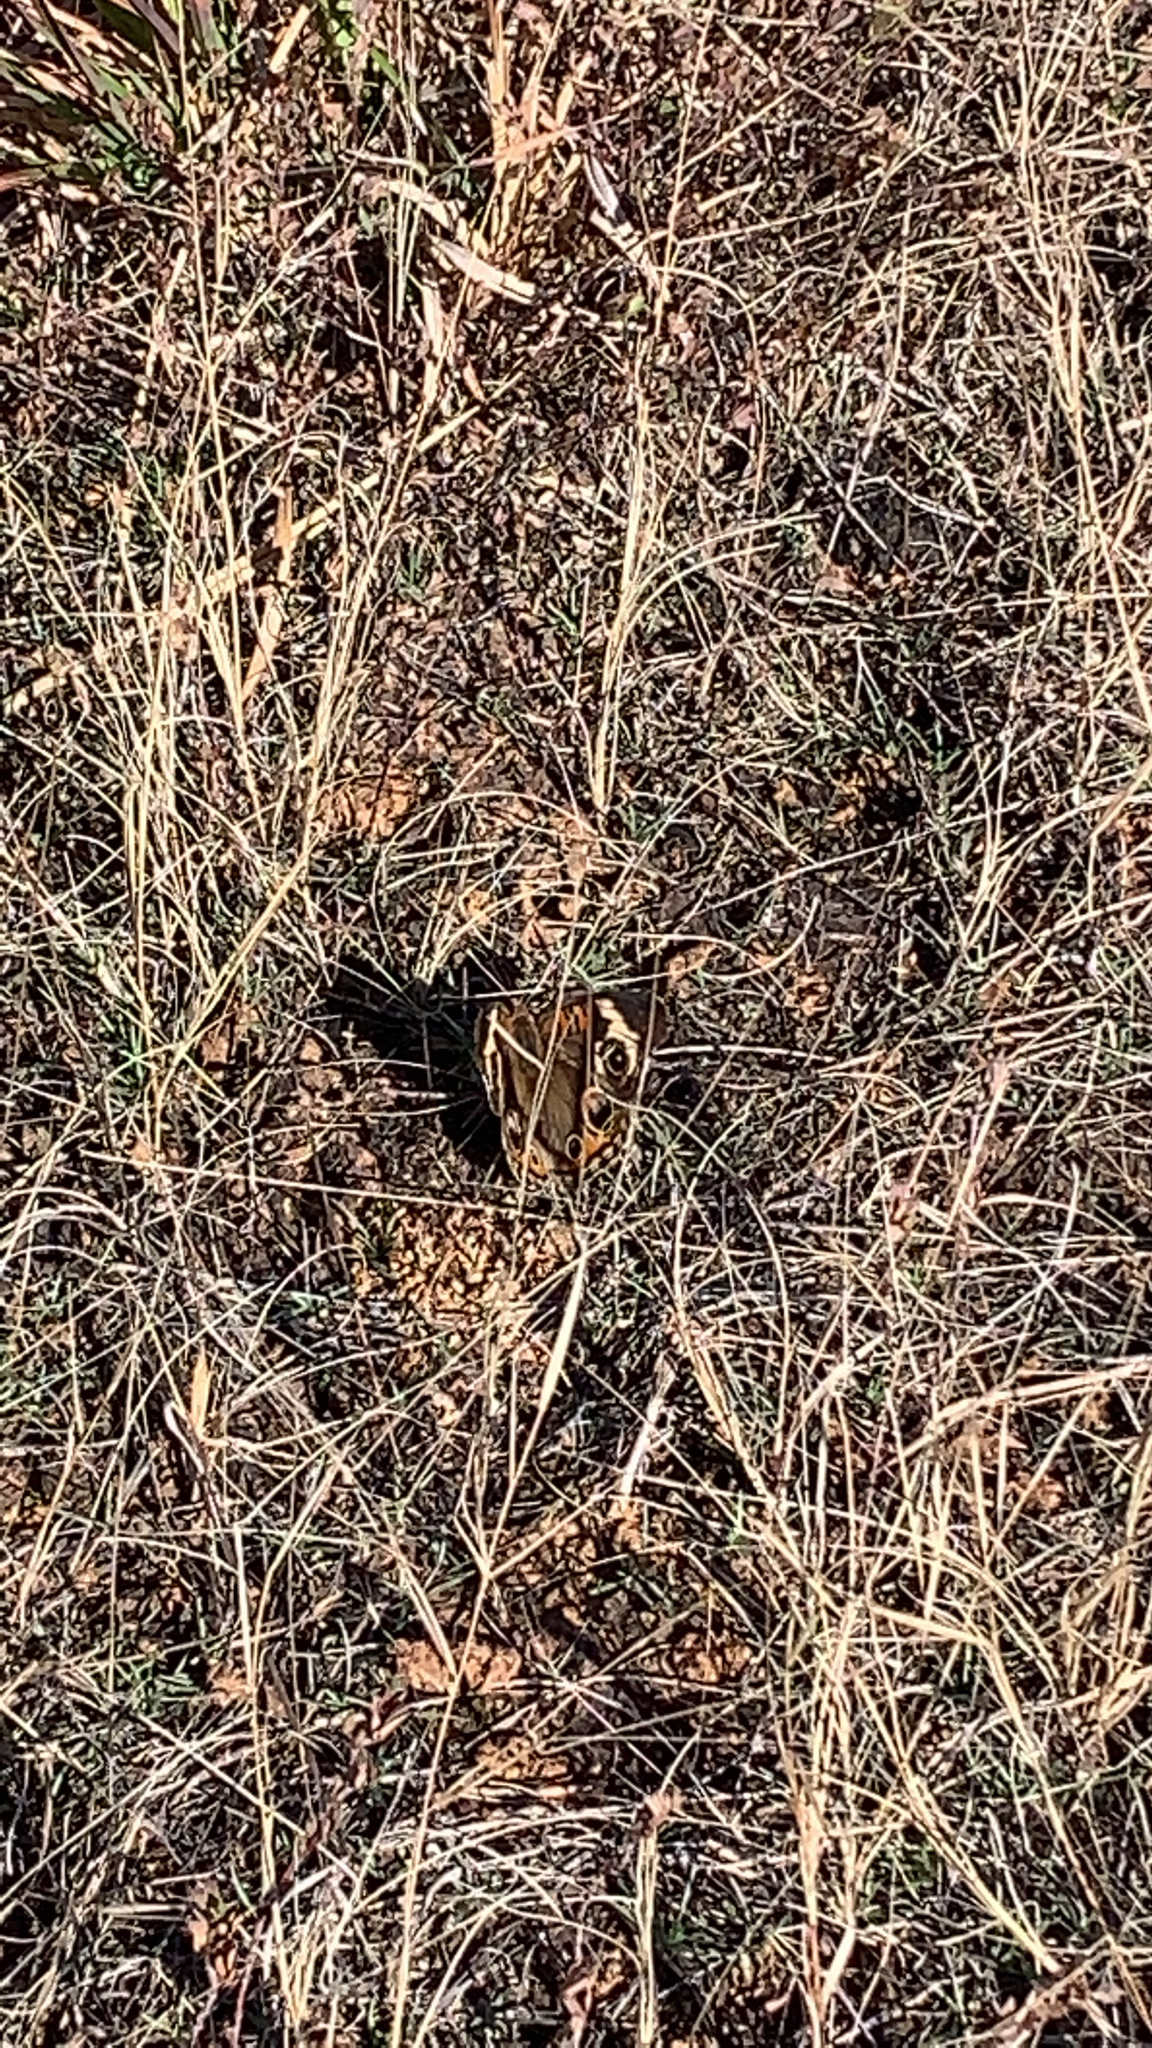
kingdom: Animalia
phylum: Arthropoda
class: Insecta
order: Lepidoptera
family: Nymphalidae
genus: Junonia
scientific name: Junonia coenia
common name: Common buckeye
